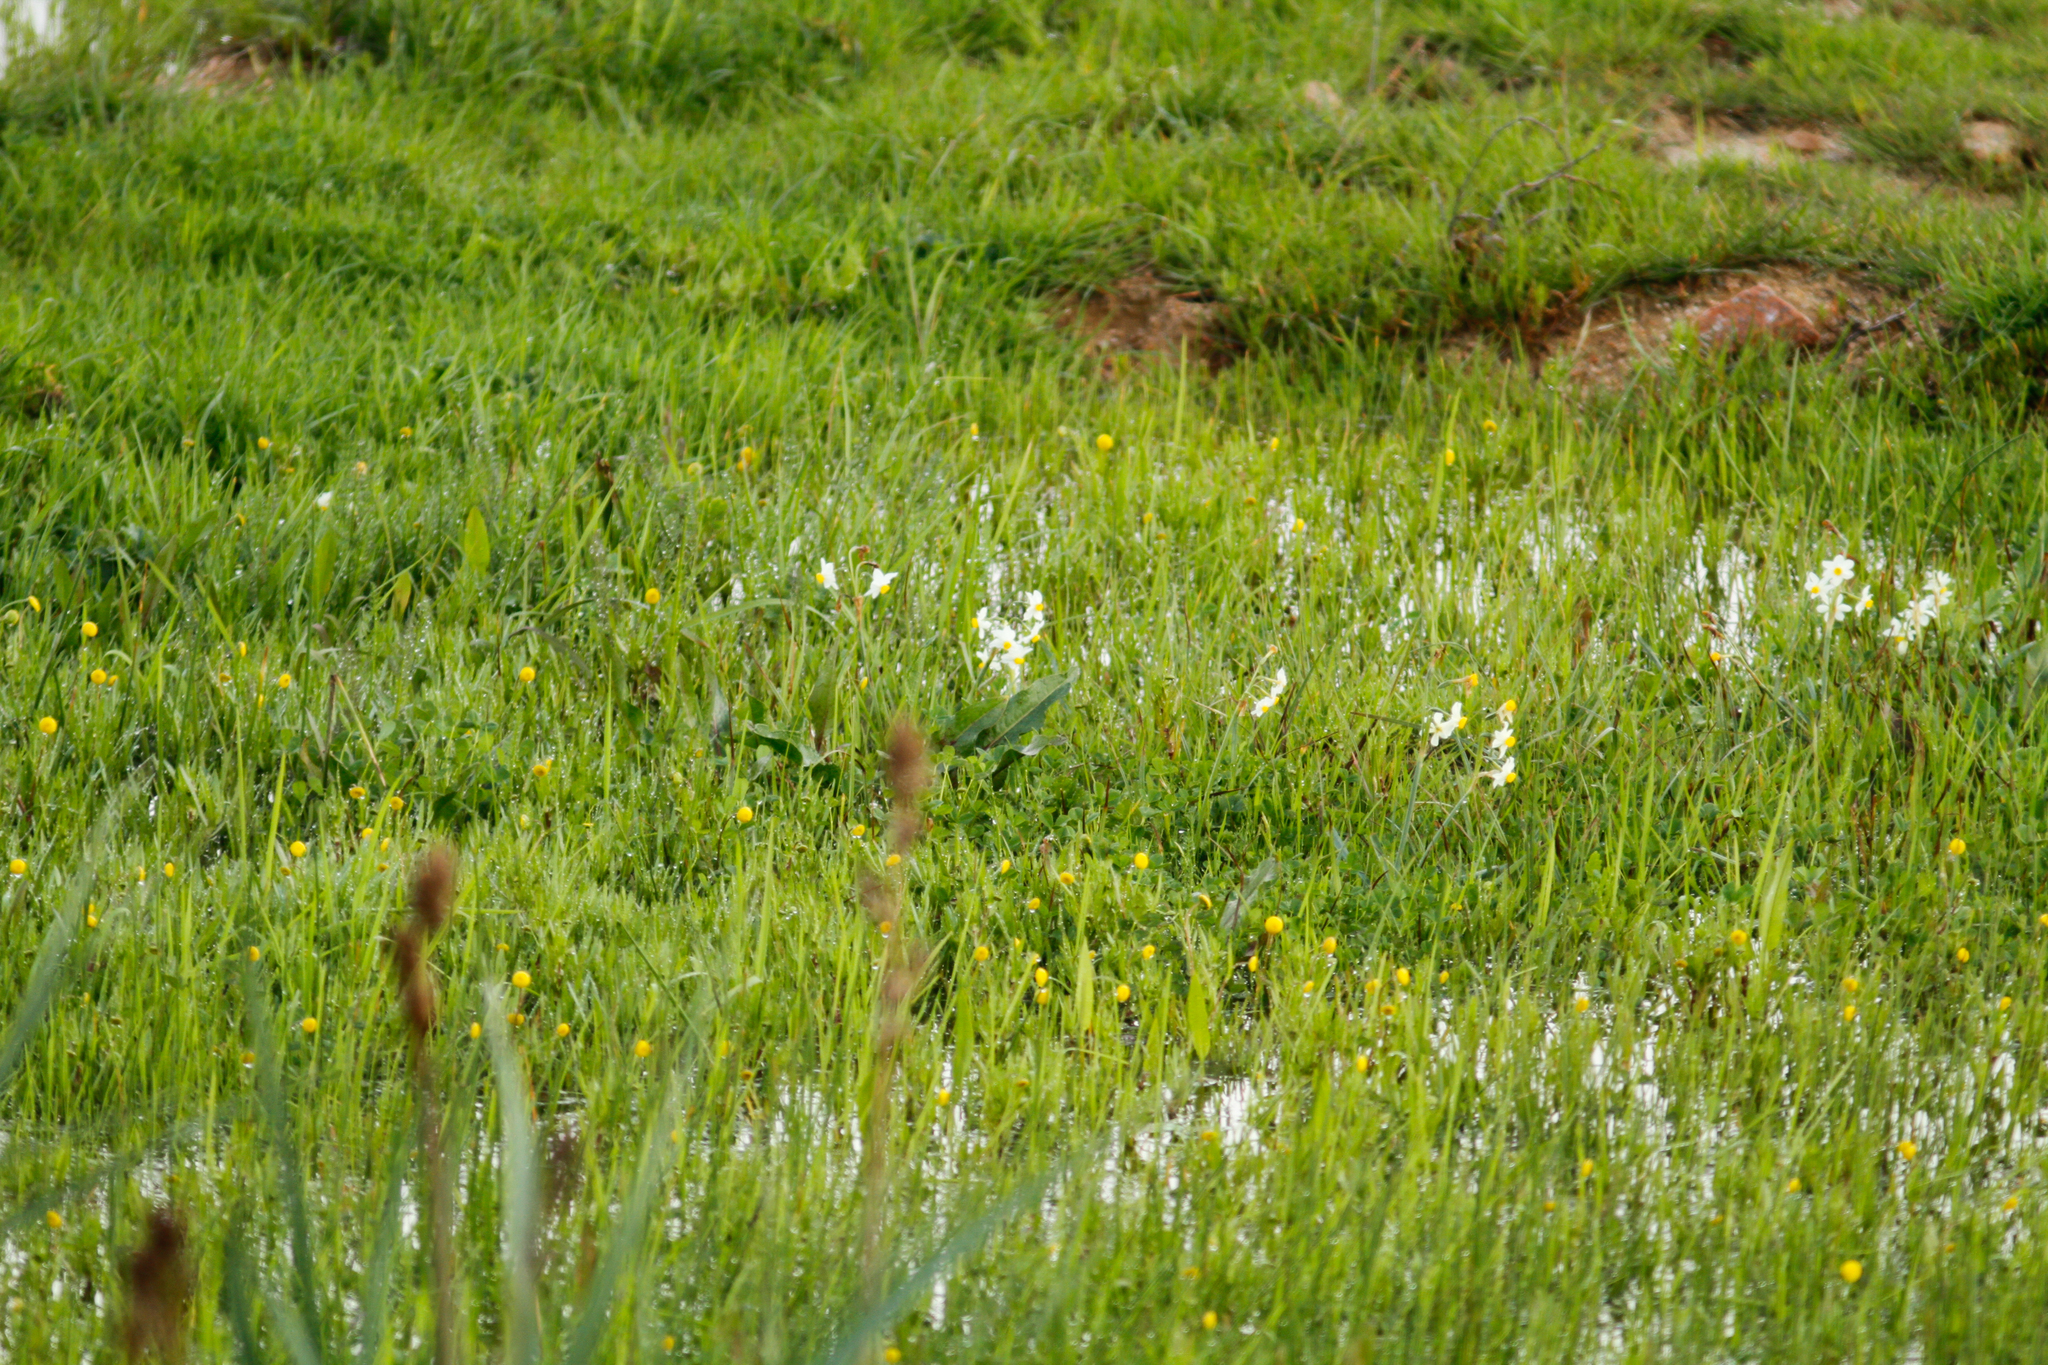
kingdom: Plantae
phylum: Tracheophyta
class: Liliopsida
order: Asparagales
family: Amaryllidaceae
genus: Narcissus
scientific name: Narcissus tazetta
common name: Bunch-flowered daffodil
